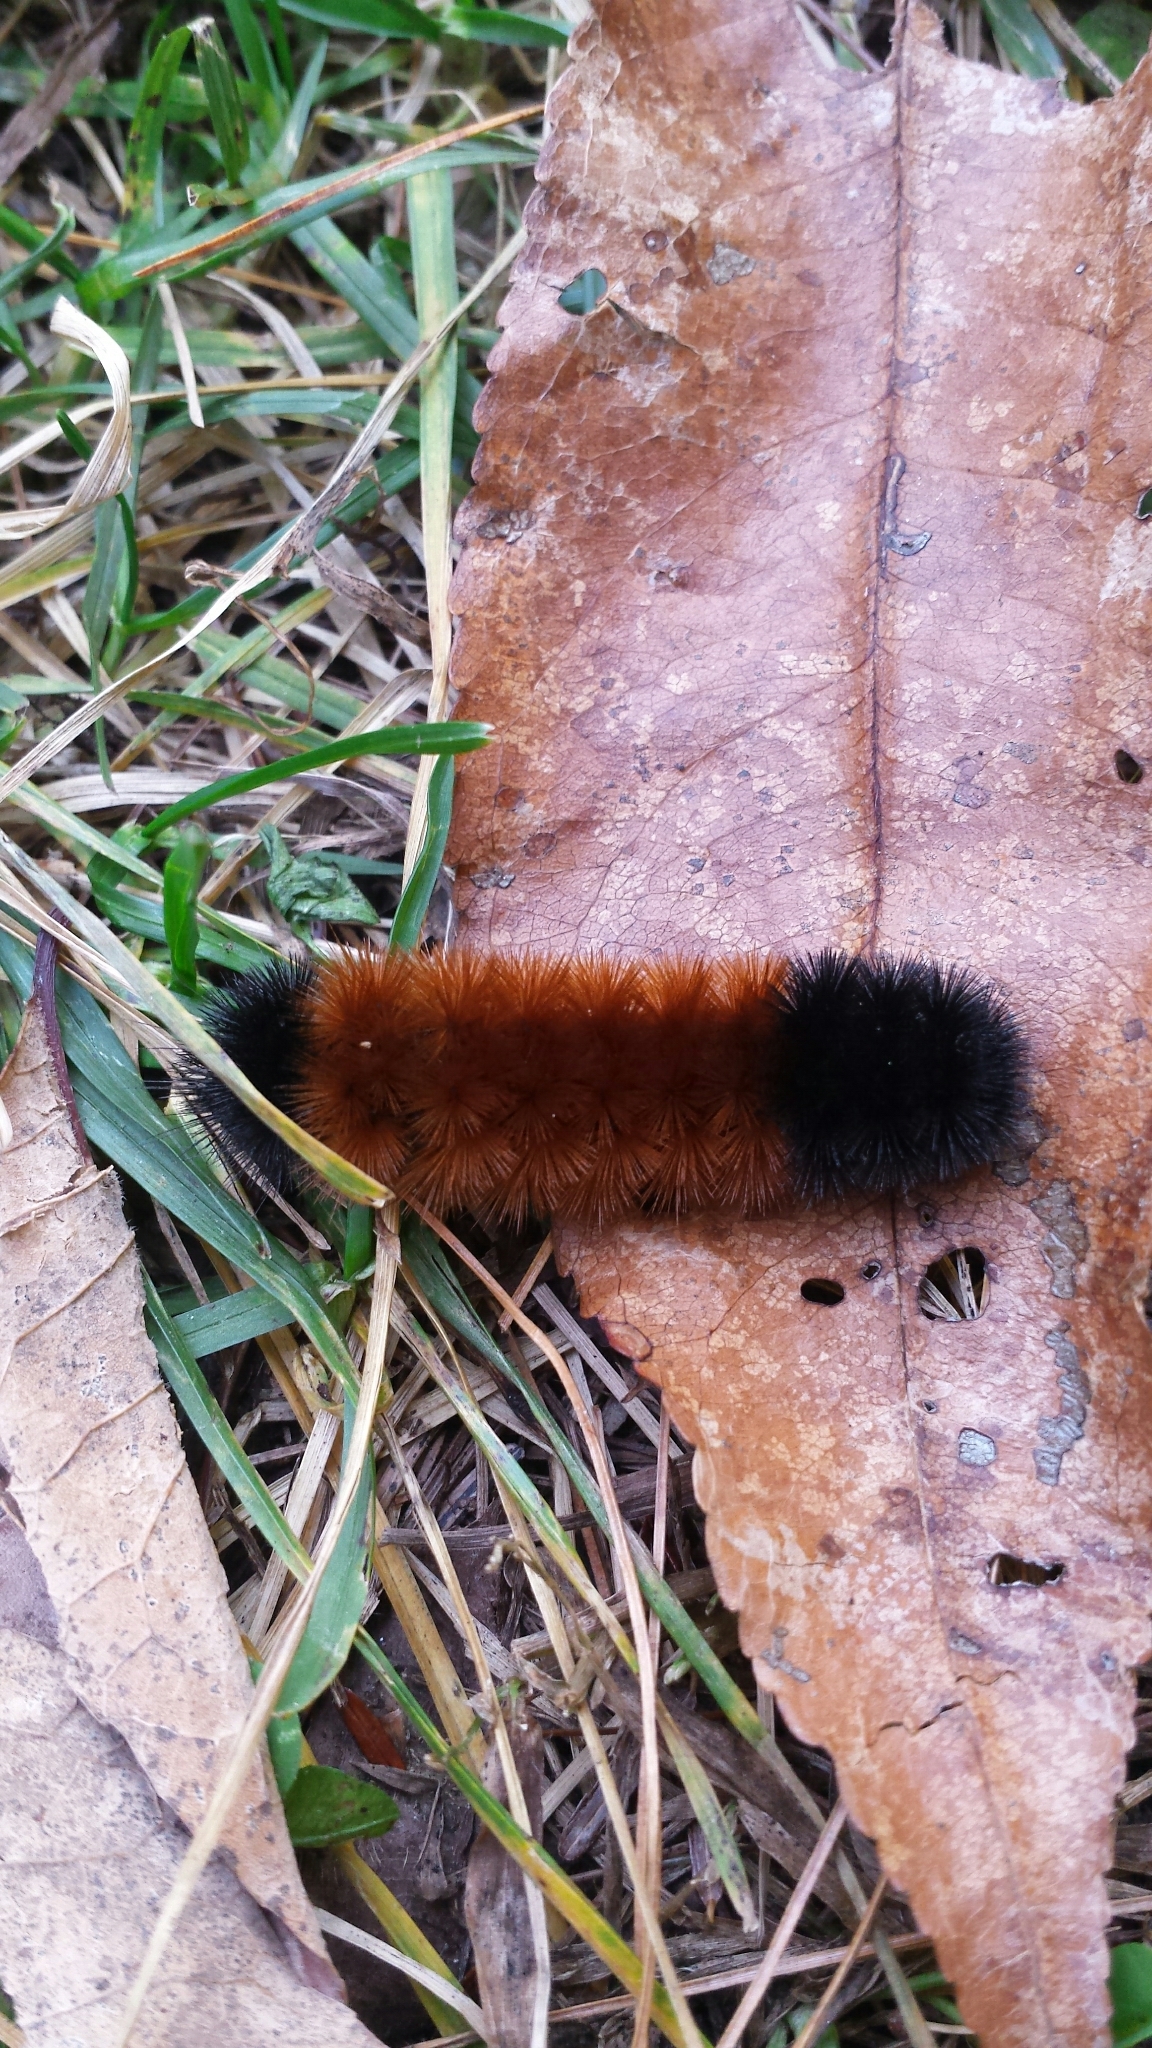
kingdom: Animalia
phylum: Arthropoda
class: Insecta
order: Lepidoptera
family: Erebidae
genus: Pyrrharctia
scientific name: Pyrrharctia isabella
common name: Isabella tiger moth
